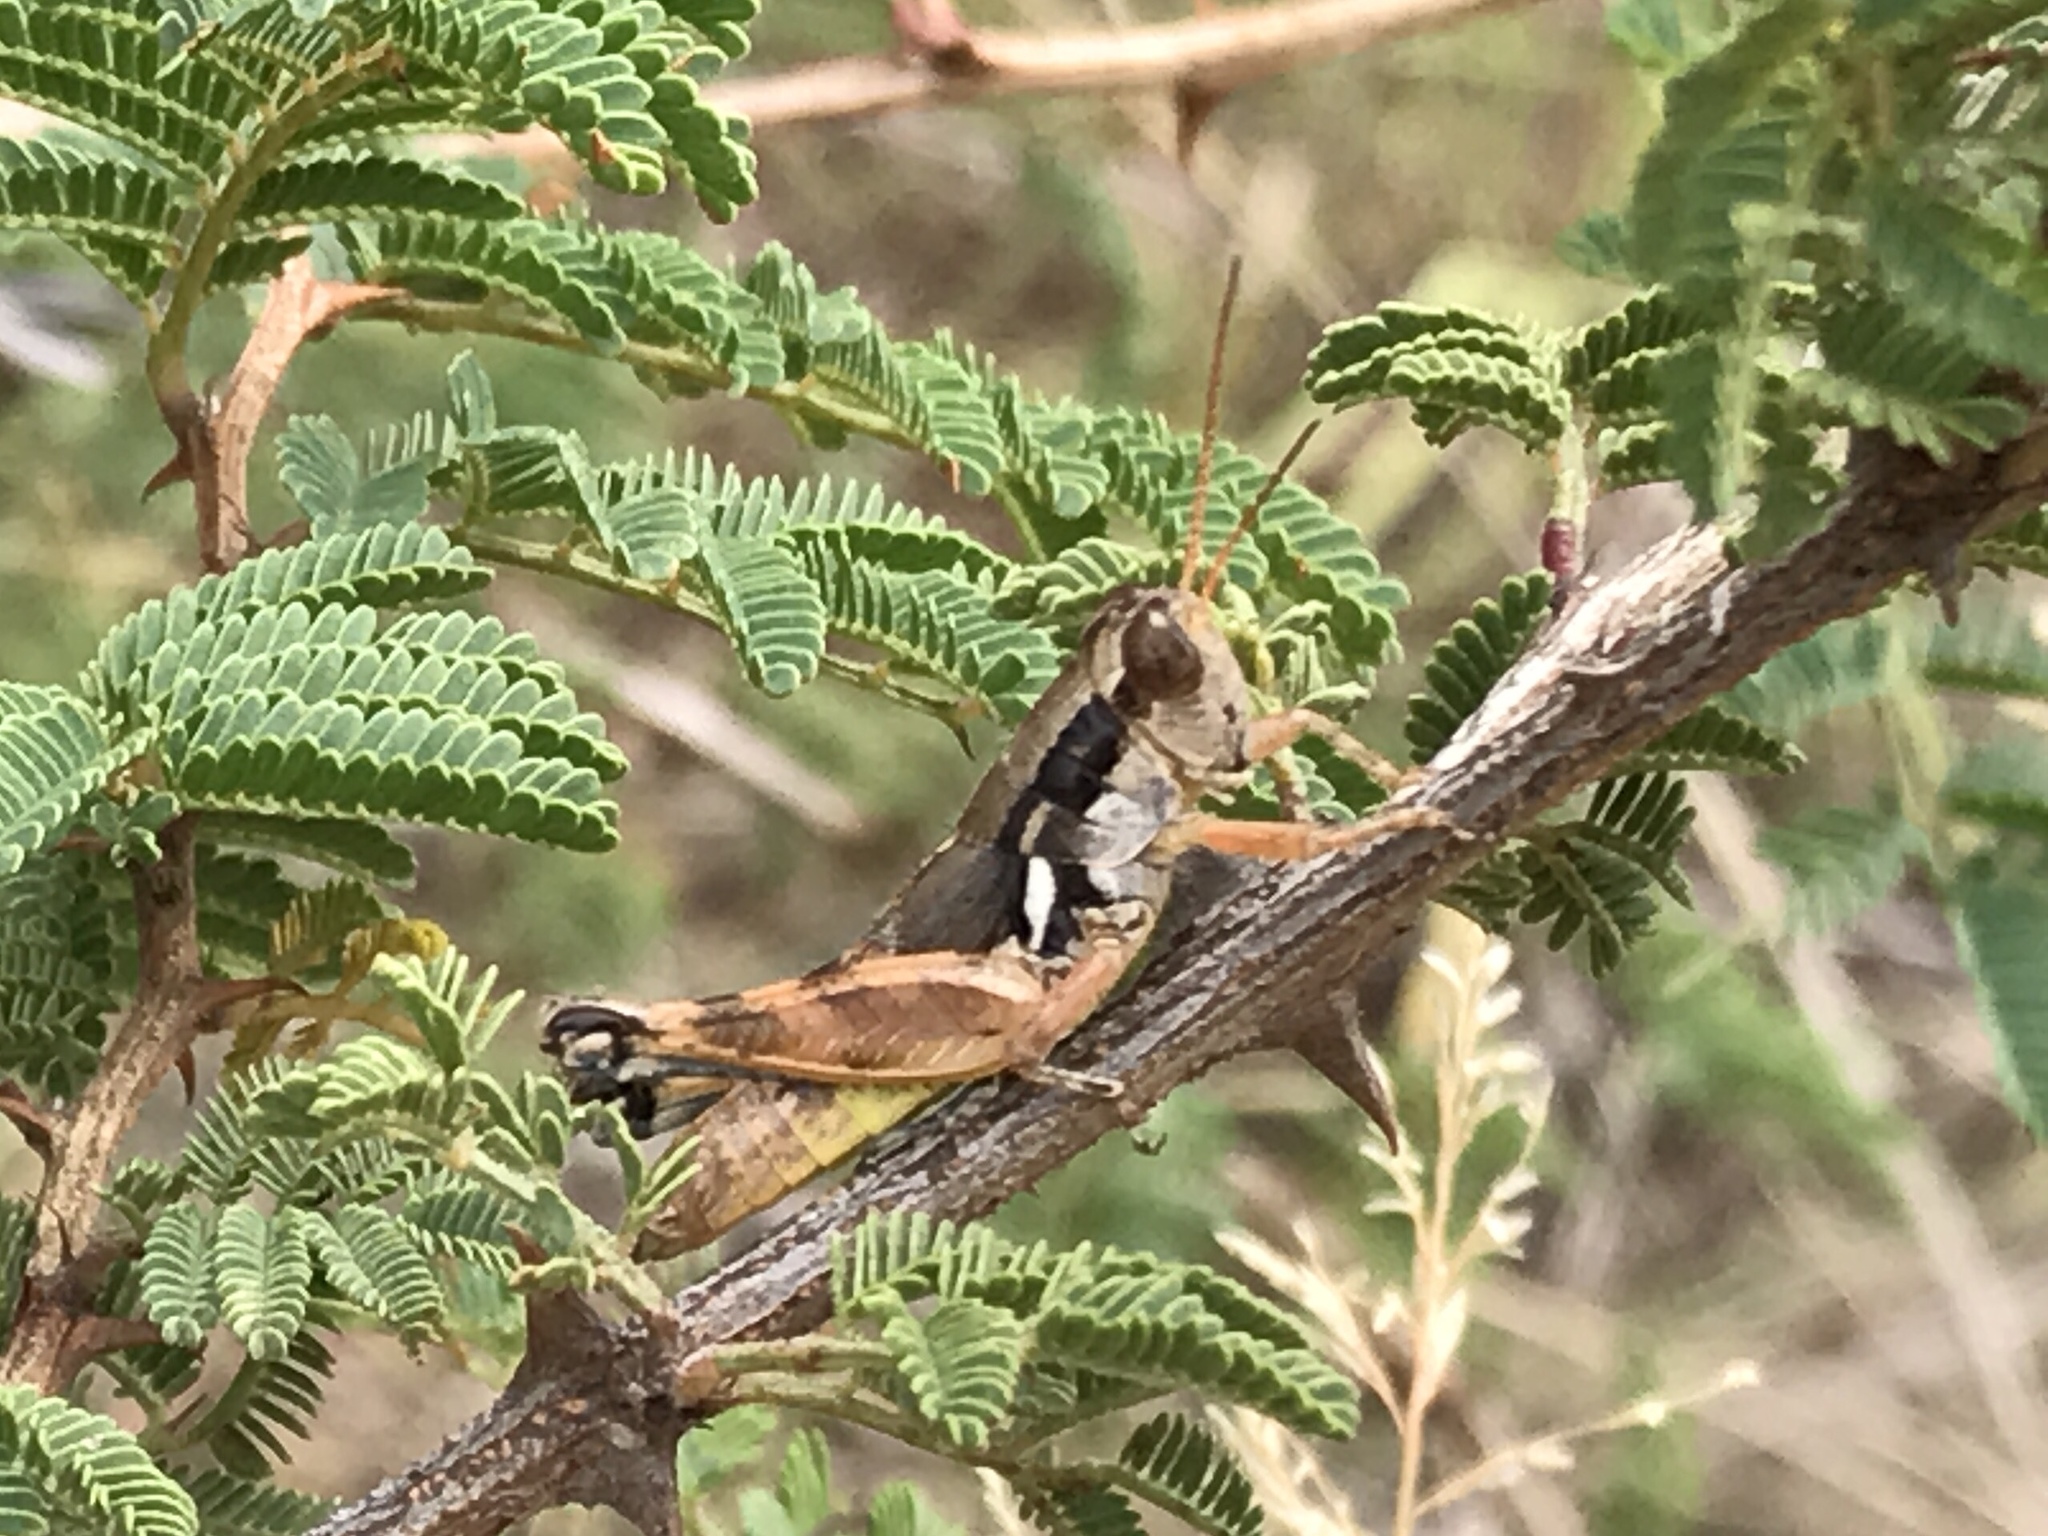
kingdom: Animalia
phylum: Arthropoda
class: Insecta
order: Orthoptera
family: Acrididae
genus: Melanoplus
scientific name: Melanoplus aridus
